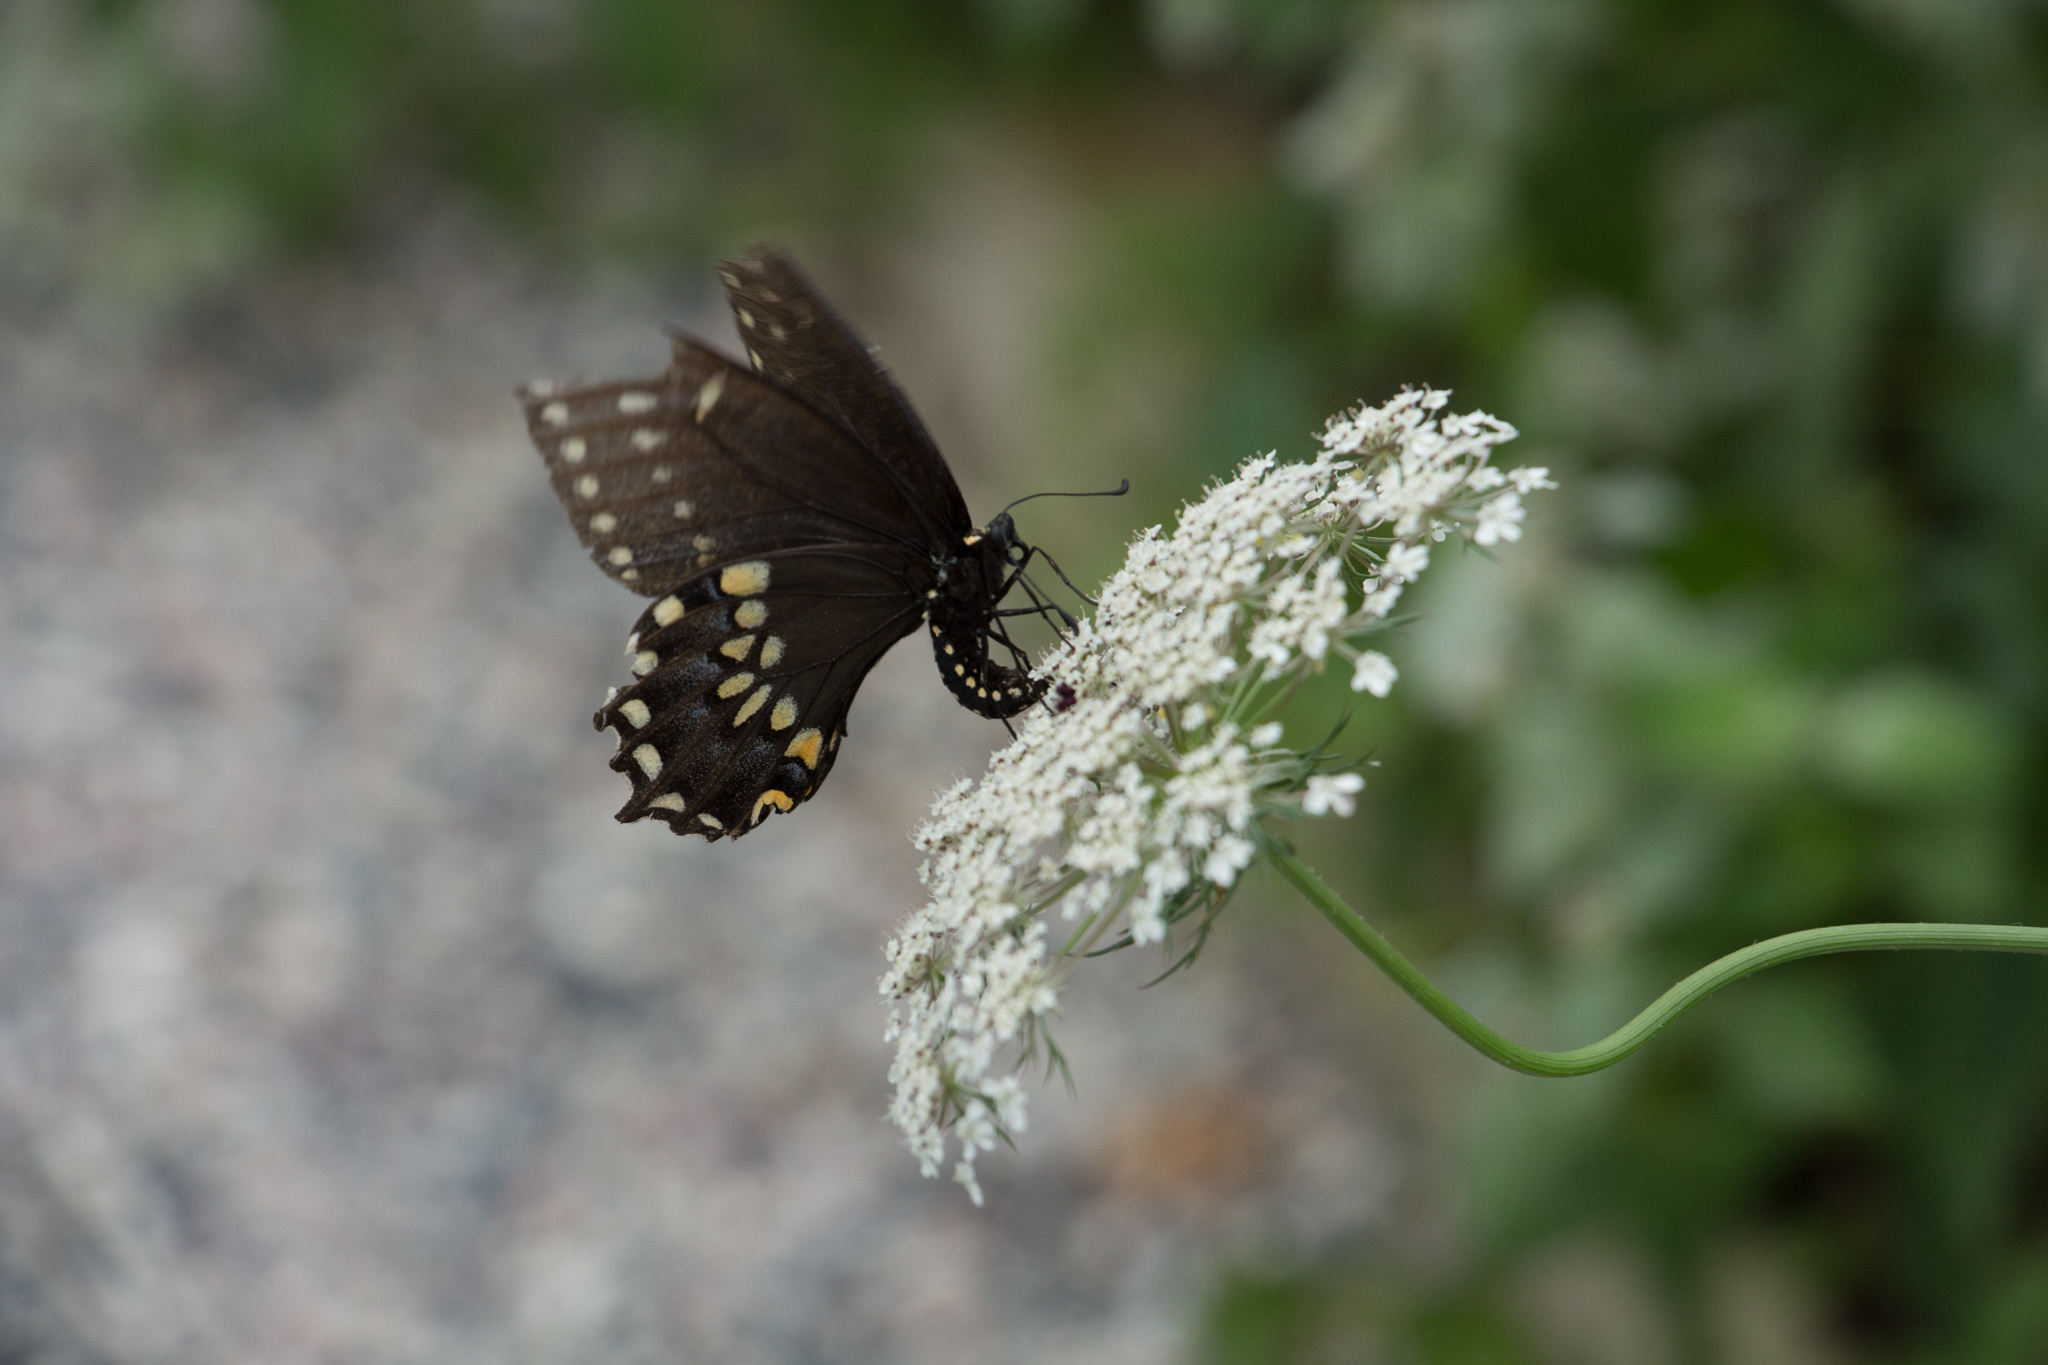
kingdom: Animalia
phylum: Arthropoda
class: Insecta
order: Lepidoptera
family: Papilionidae
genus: Papilio
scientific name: Papilio polyxenes
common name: Black swallowtail
